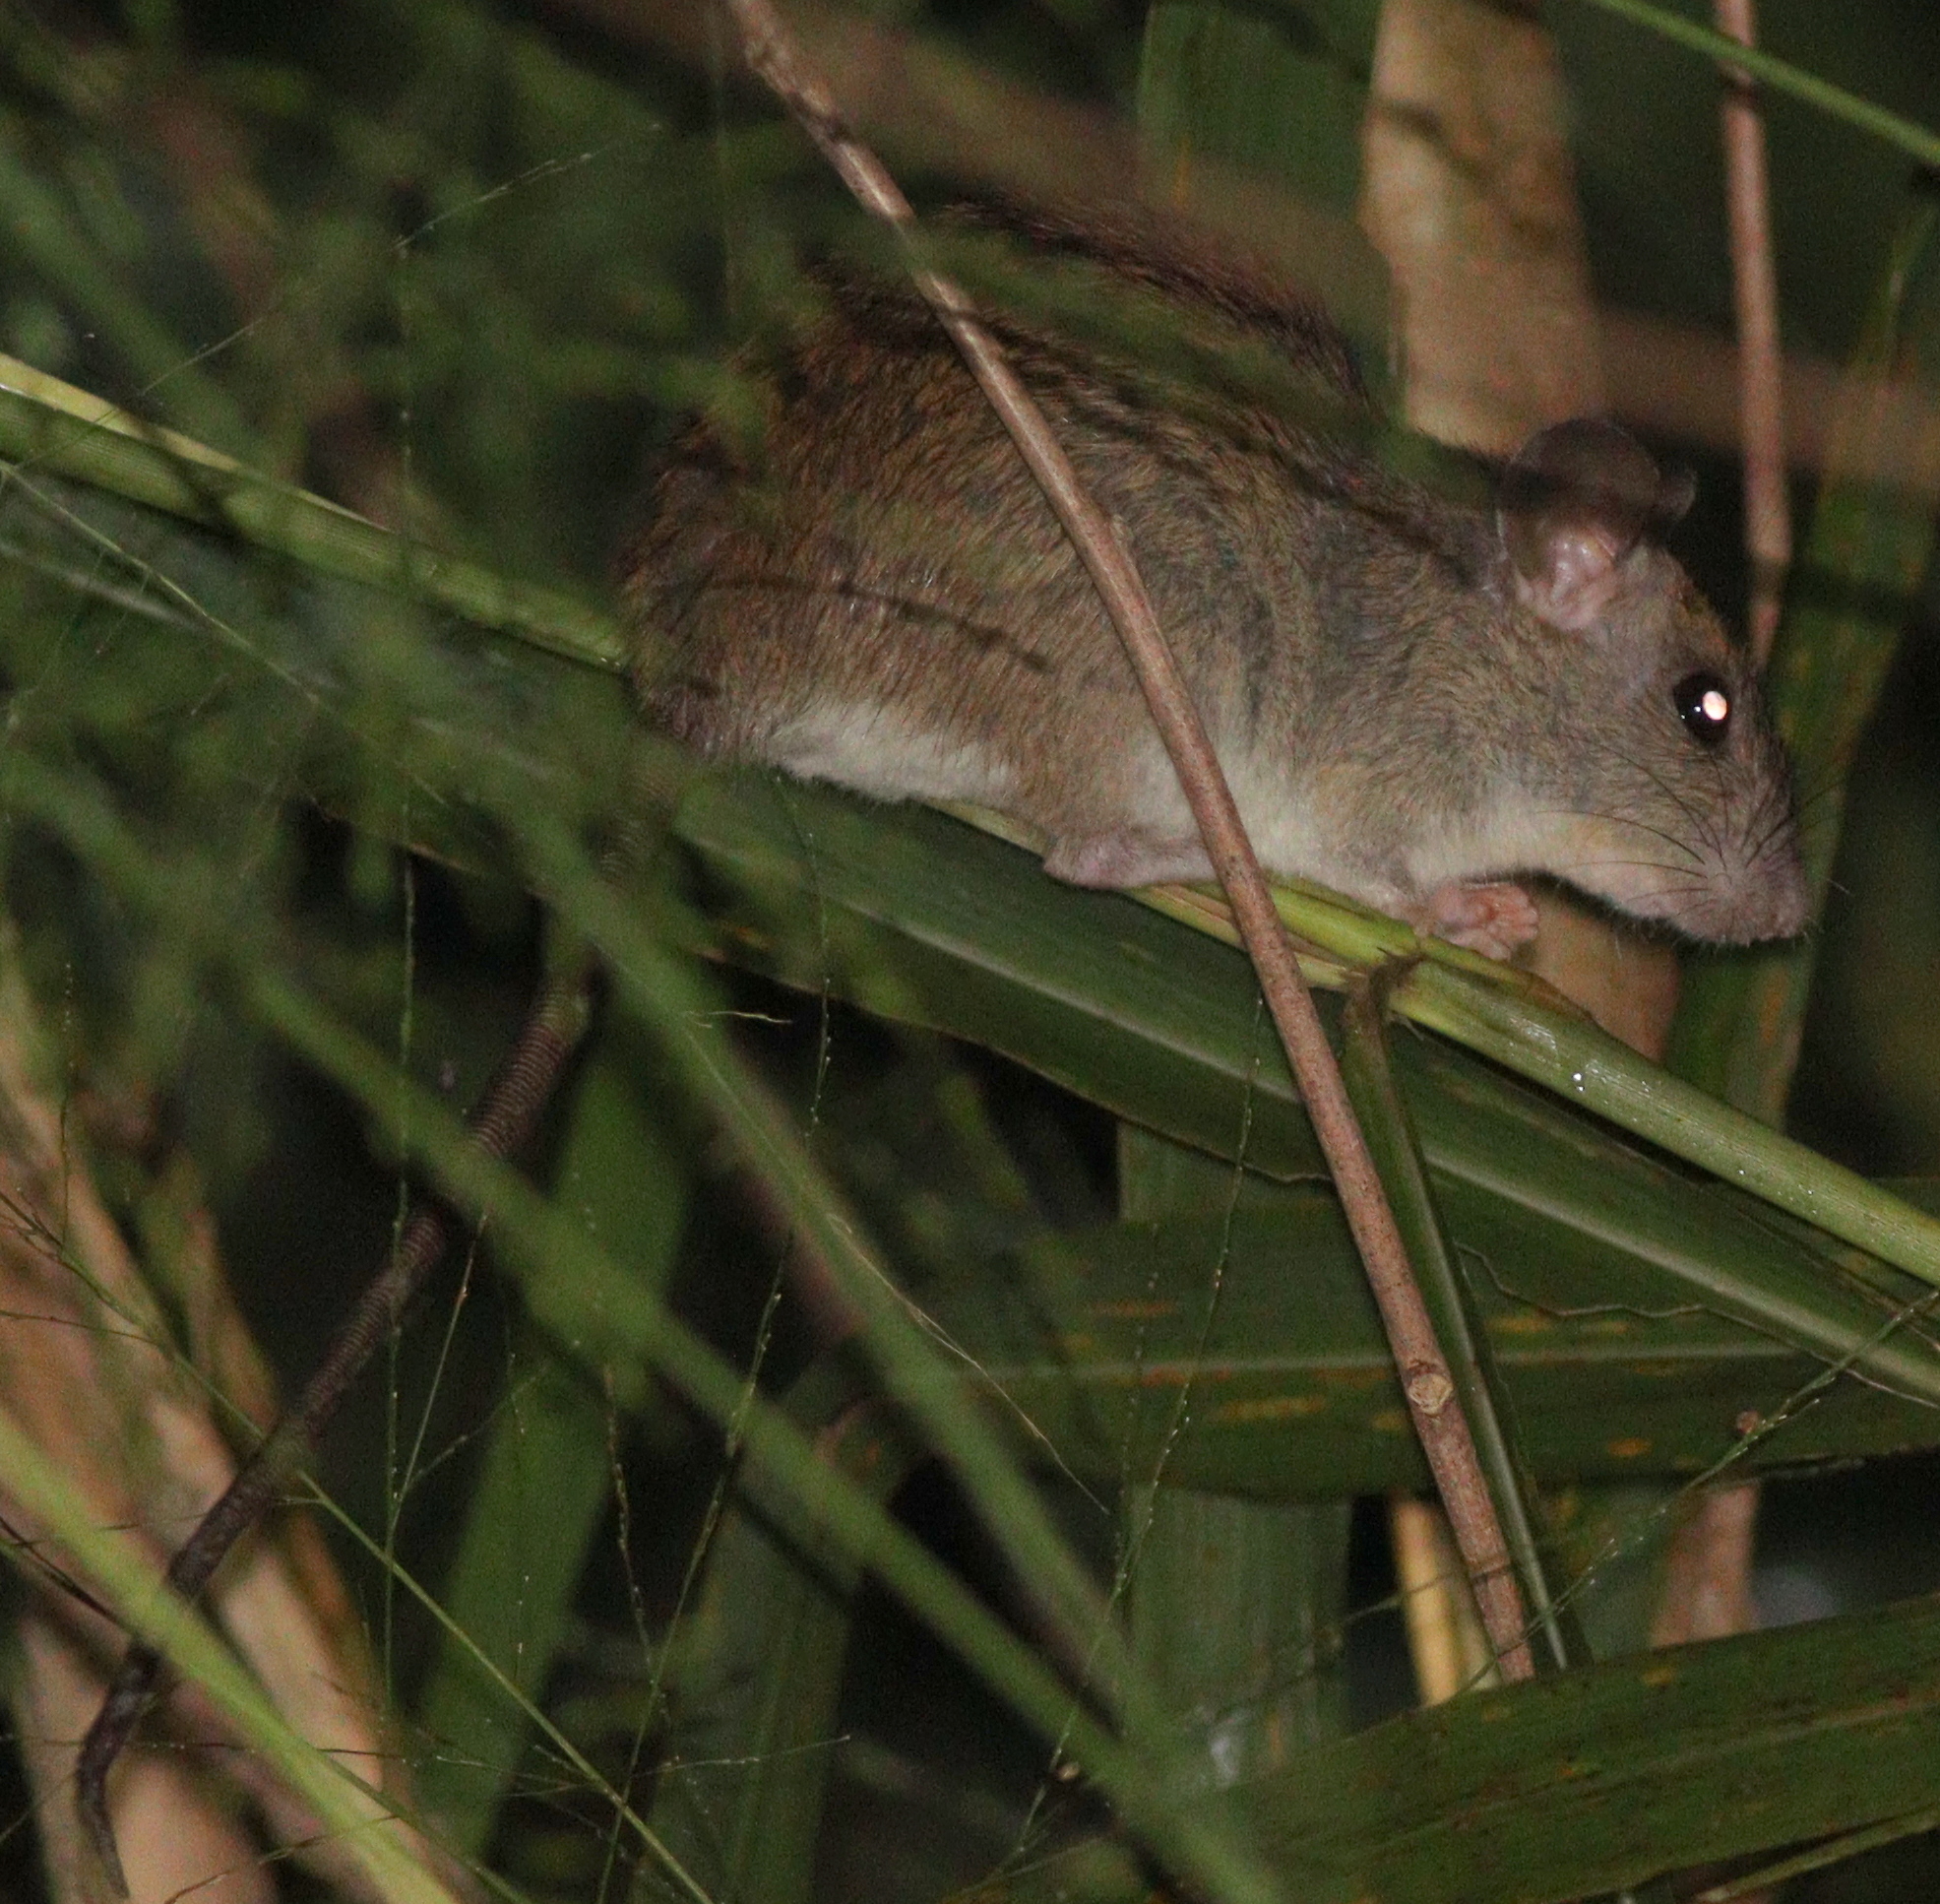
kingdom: Animalia
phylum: Chordata
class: Mammalia
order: Rodentia
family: Muridae
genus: Rattus
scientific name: Rattus argentiventer
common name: Ricefield rat
